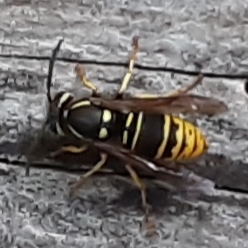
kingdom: Animalia
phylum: Arthropoda
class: Insecta
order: Hymenoptera
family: Vespidae
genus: Vespula
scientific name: Vespula vidua
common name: Widow yellowjacket
